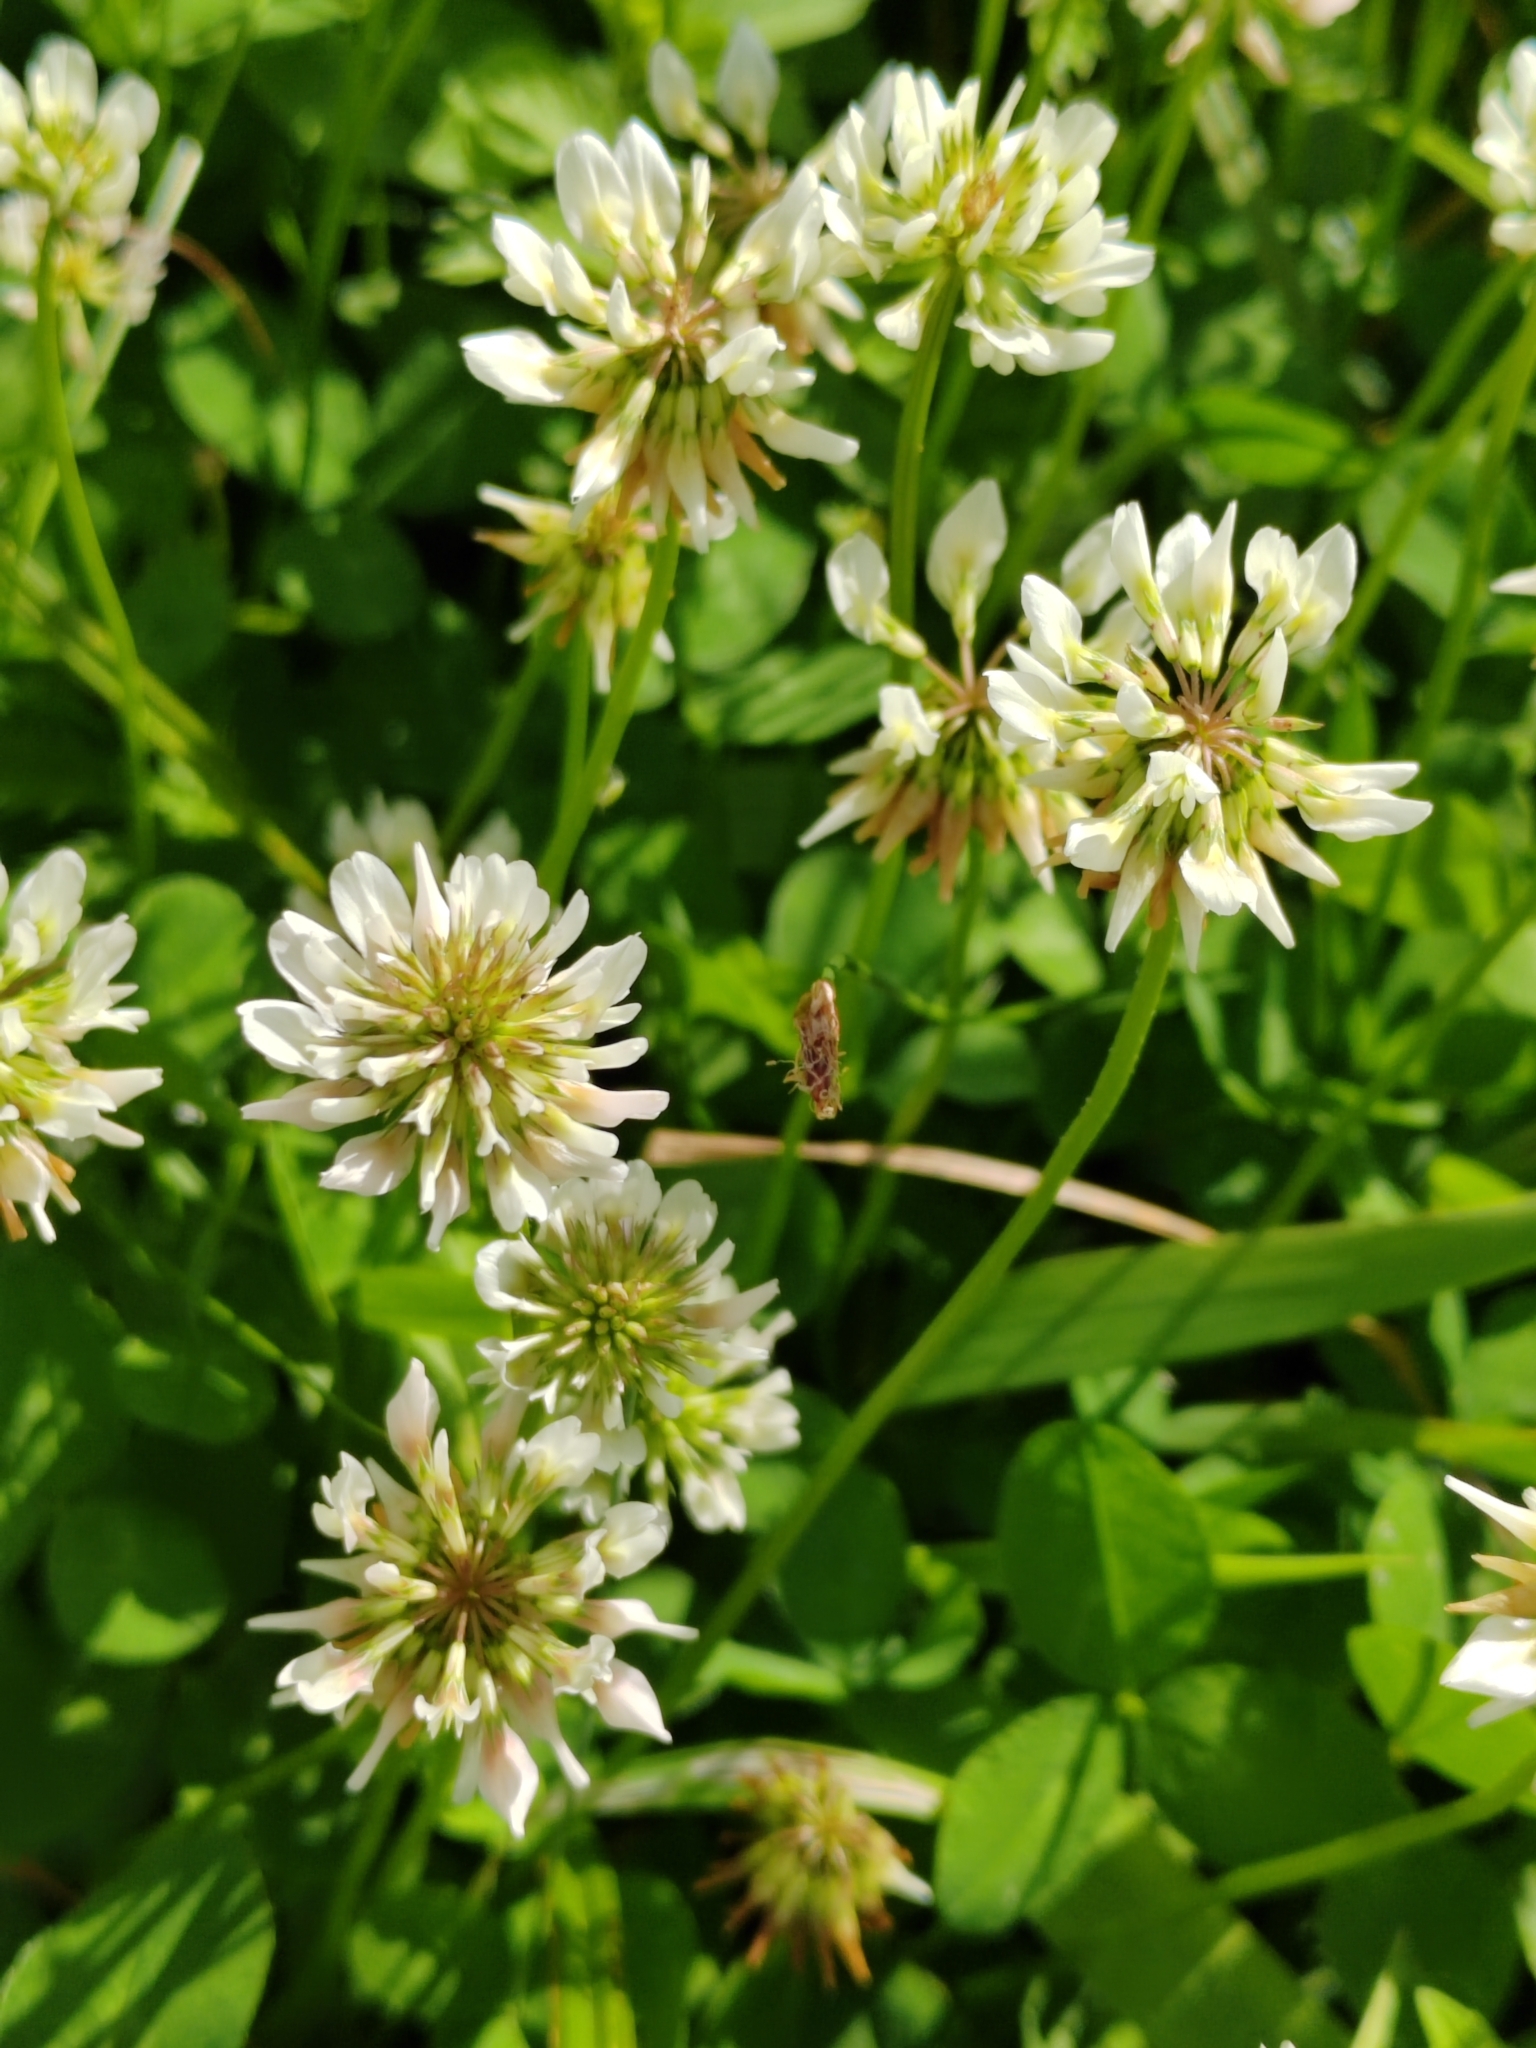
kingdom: Plantae
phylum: Tracheophyta
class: Magnoliopsida
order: Fabales
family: Fabaceae
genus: Trifolium
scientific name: Trifolium repens
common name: White clover
